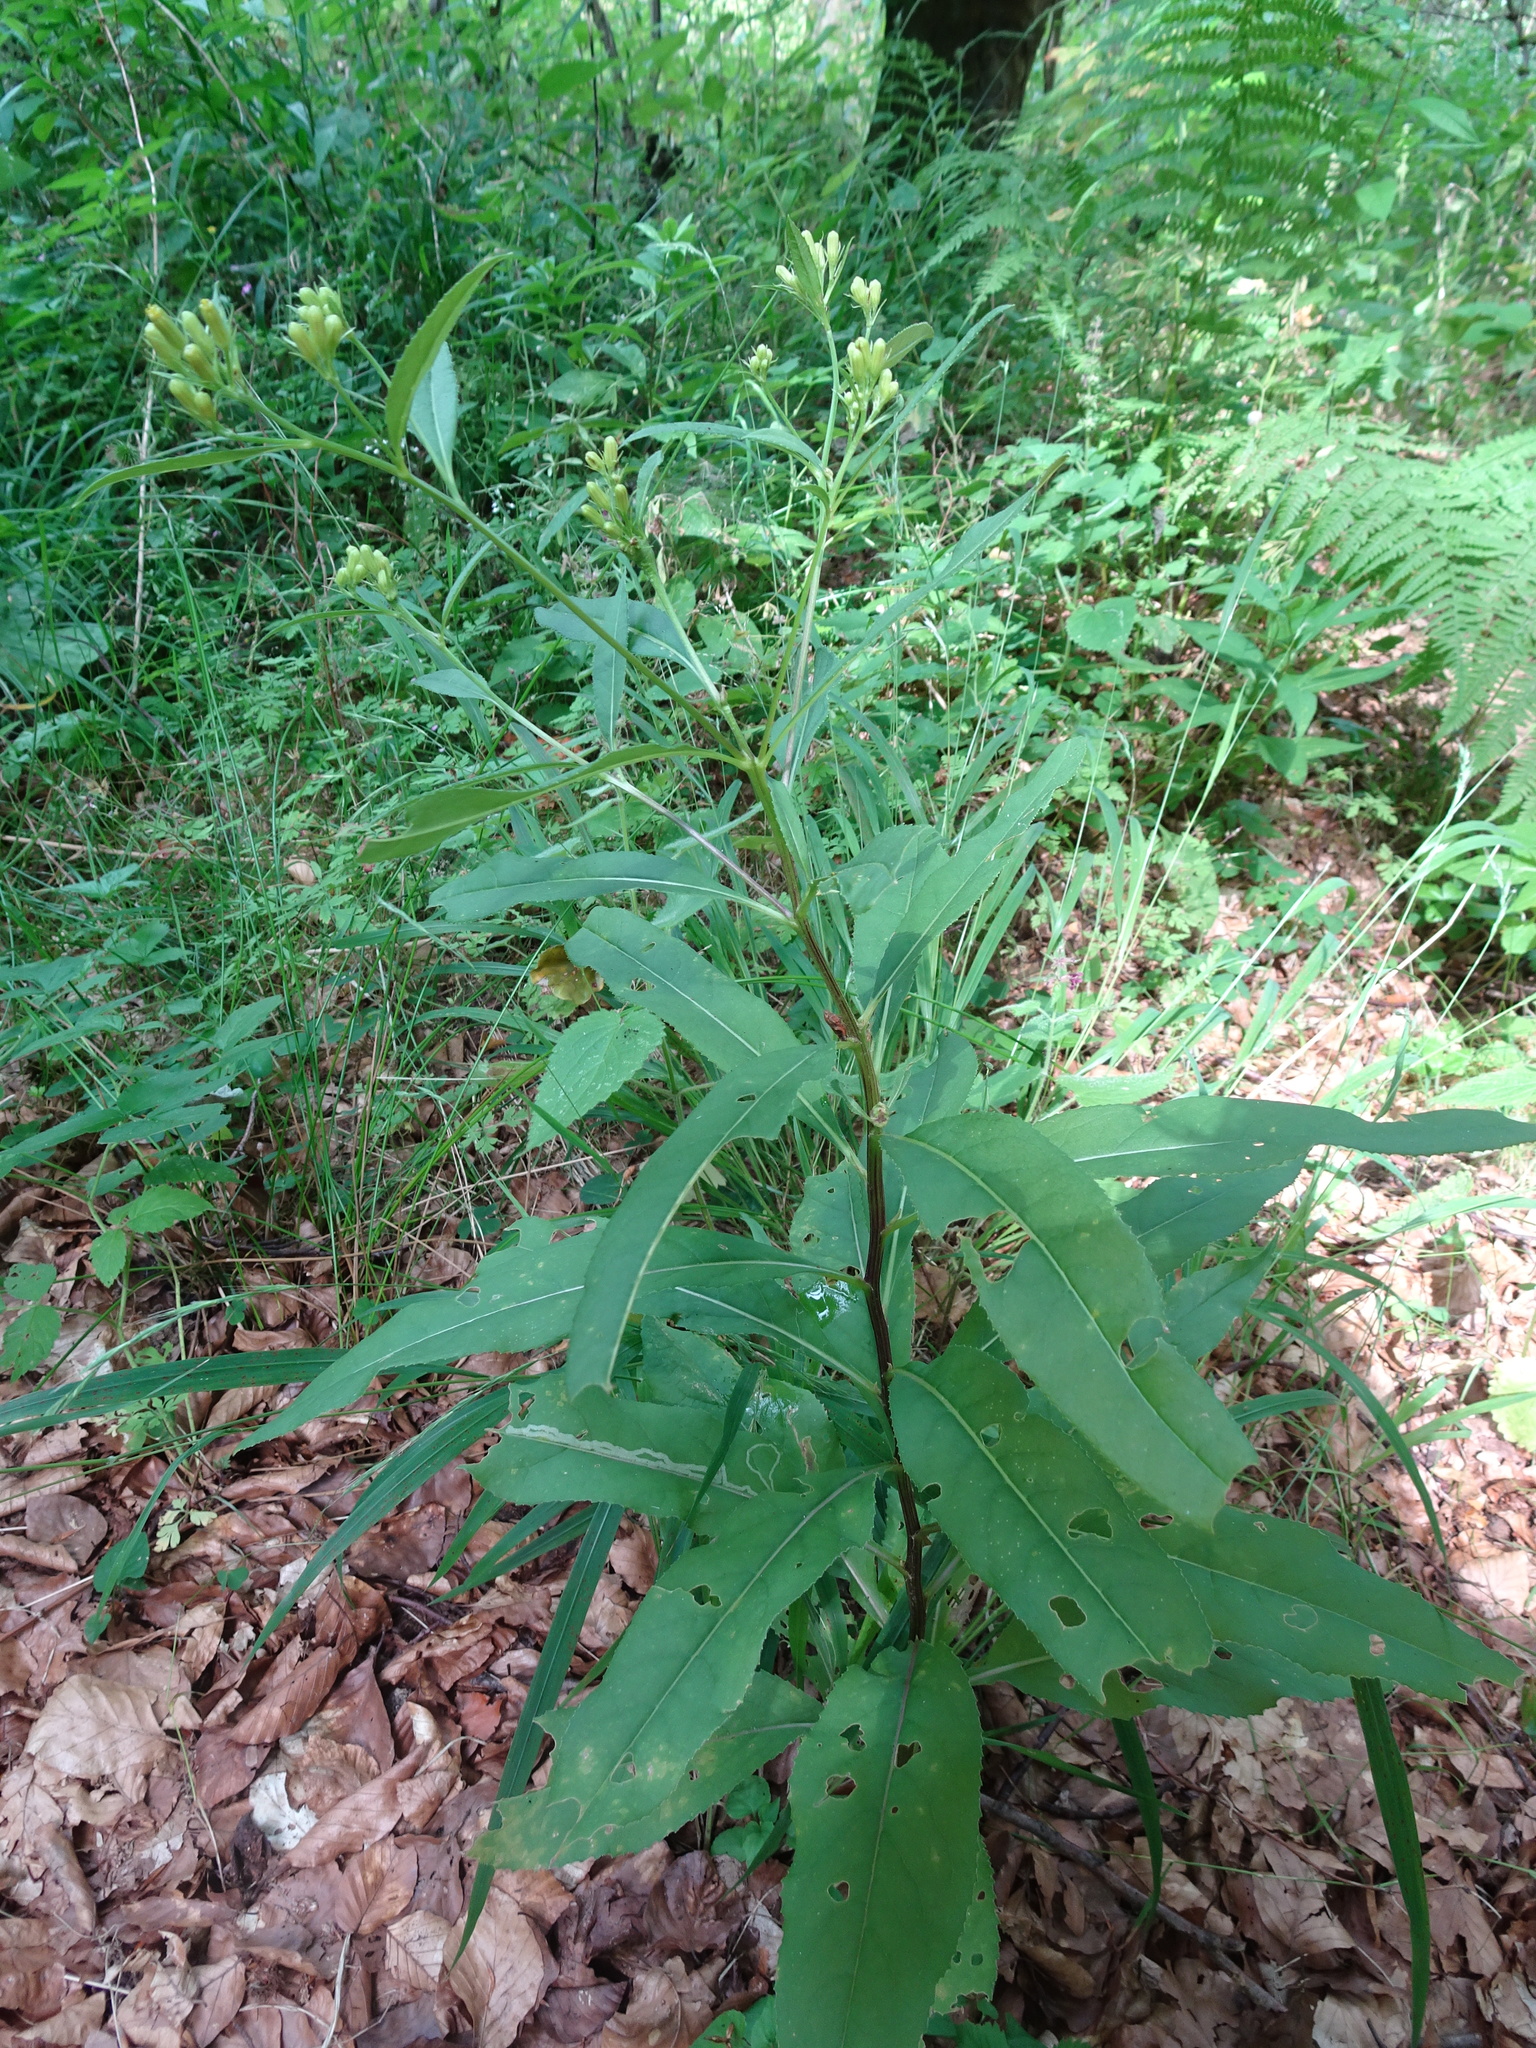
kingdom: Plantae
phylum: Tracheophyta
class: Magnoliopsida
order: Asterales
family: Asteraceae
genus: Senecio
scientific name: Senecio ovatus
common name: Wood ragwort
